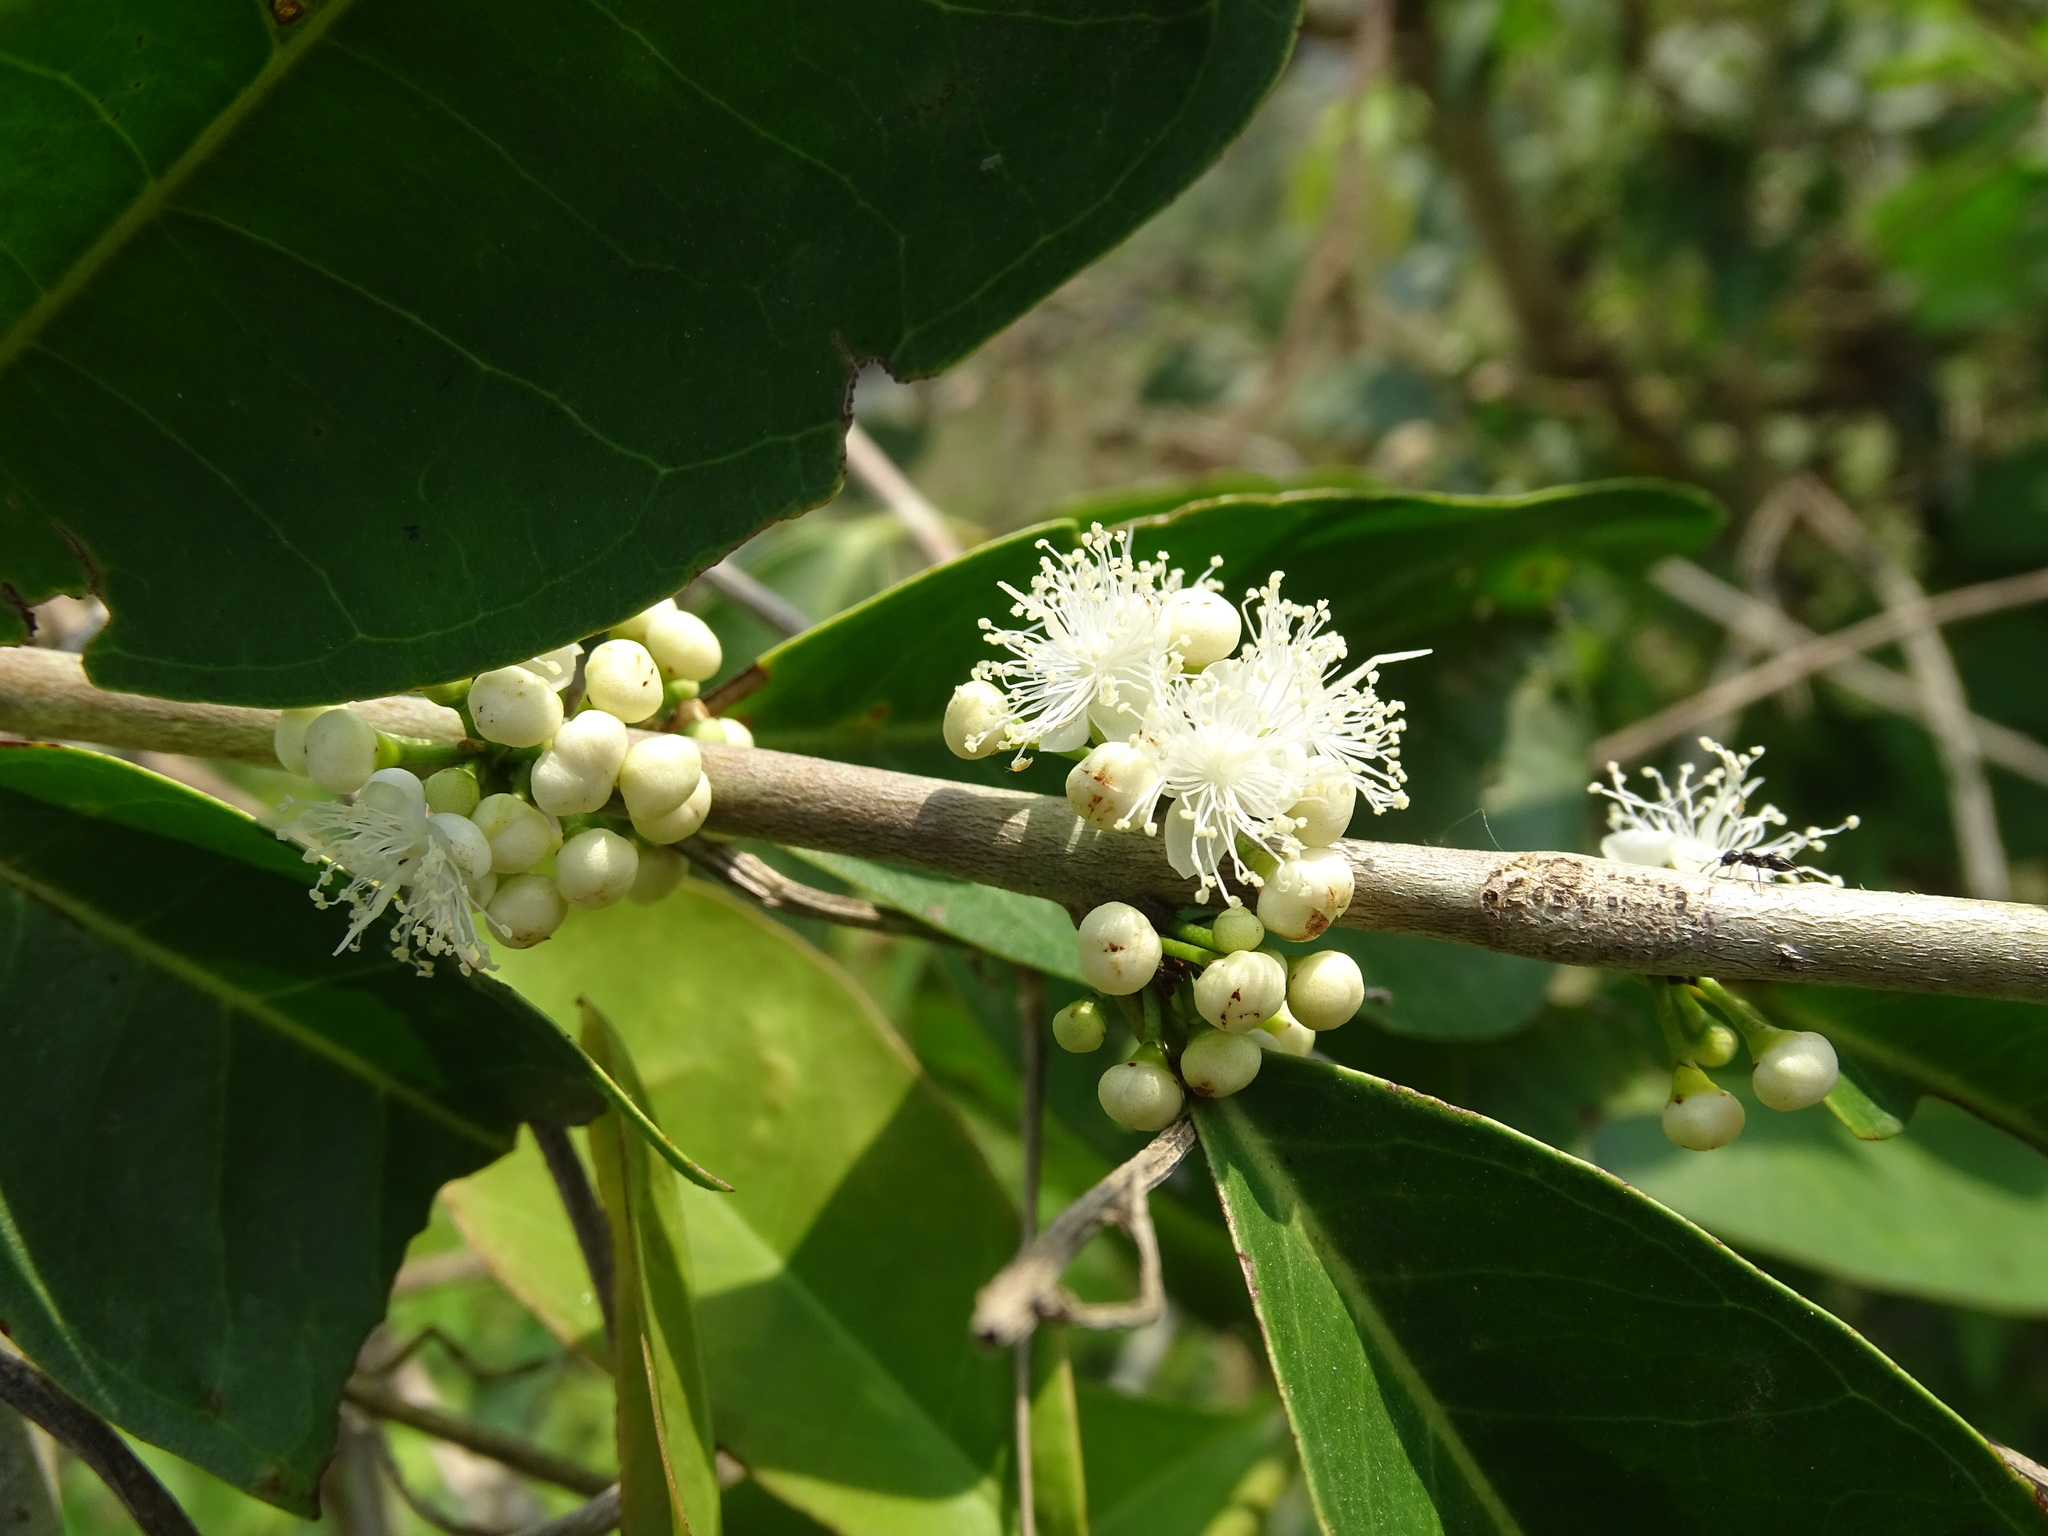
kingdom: Plantae
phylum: Tracheophyta
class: Magnoliopsida
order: Myrtales
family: Myrtaceae
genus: Eugenia
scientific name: Eugenia choapamensis
